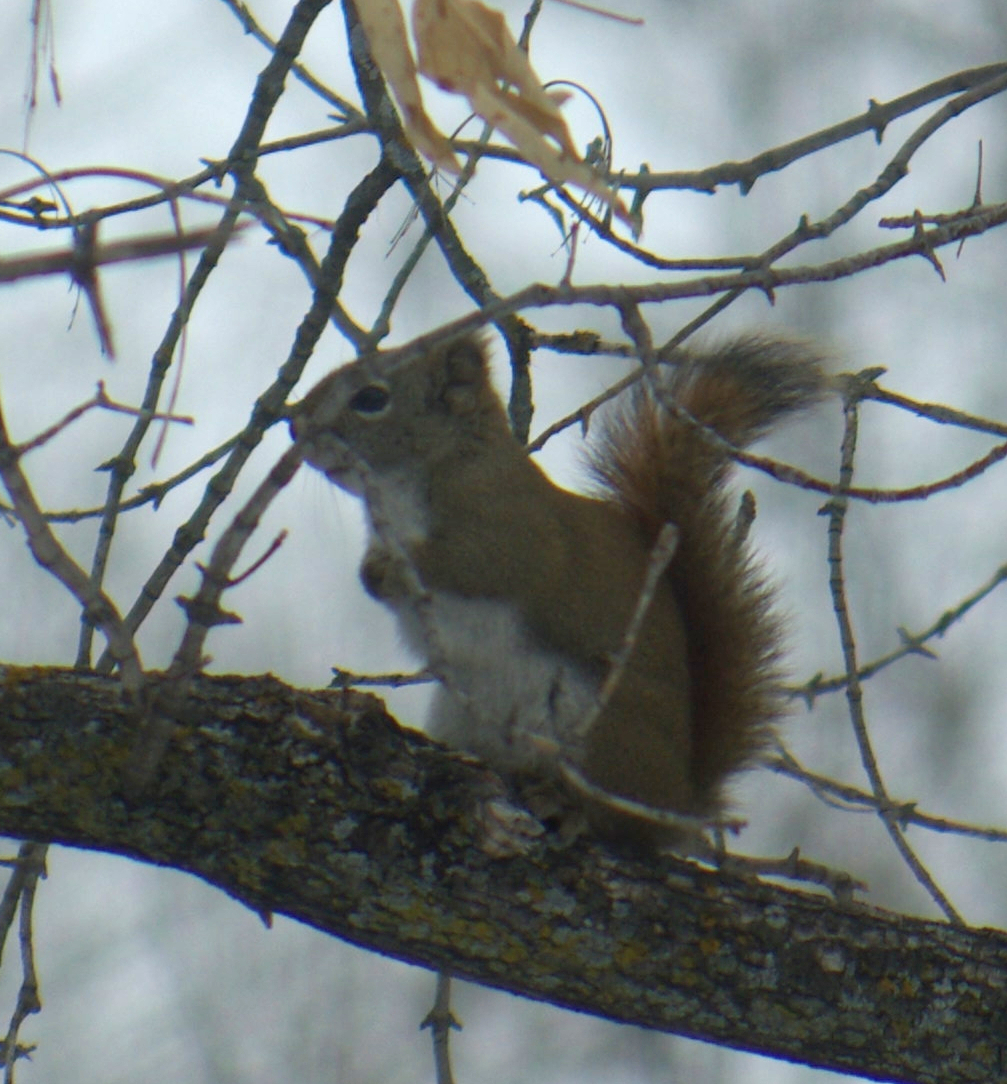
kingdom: Animalia
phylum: Chordata
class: Mammalia
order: Rodentia
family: Sciuridae
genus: Tamiasciurus
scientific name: Tamiasciurus hudsonicus
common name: Red squirrel
